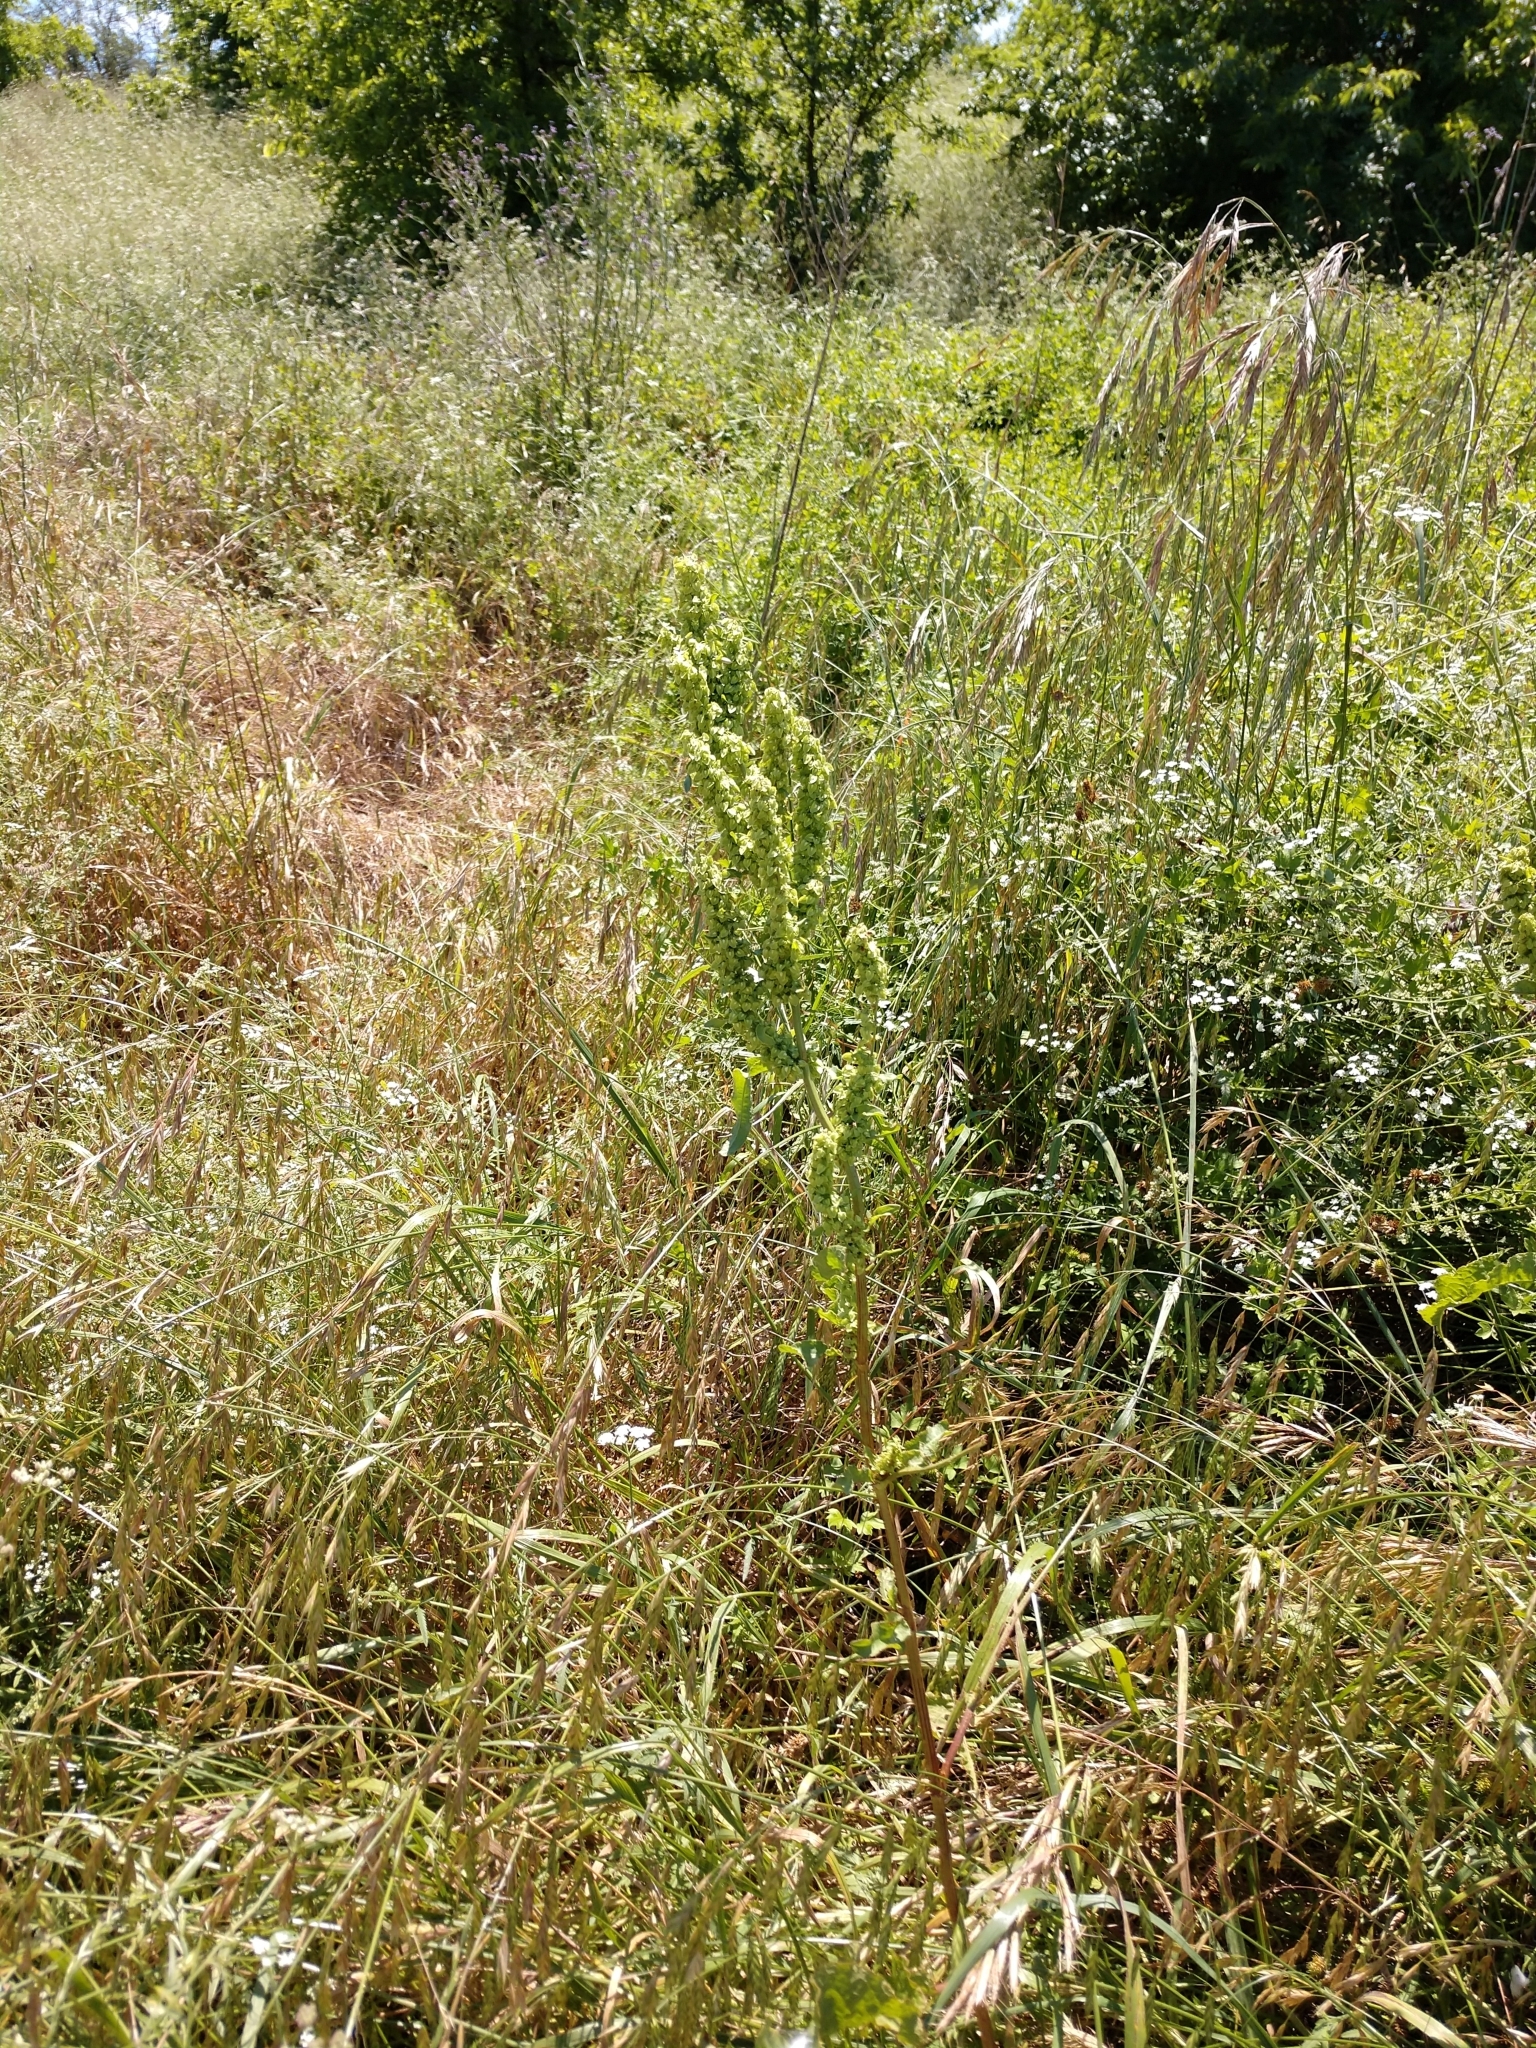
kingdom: Plantae
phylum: Tracheophyta
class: Magnoliopsida
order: Caryophyllales
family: Polygonaceae
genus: Rumex
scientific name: Rumex crispus
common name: Curled dock
